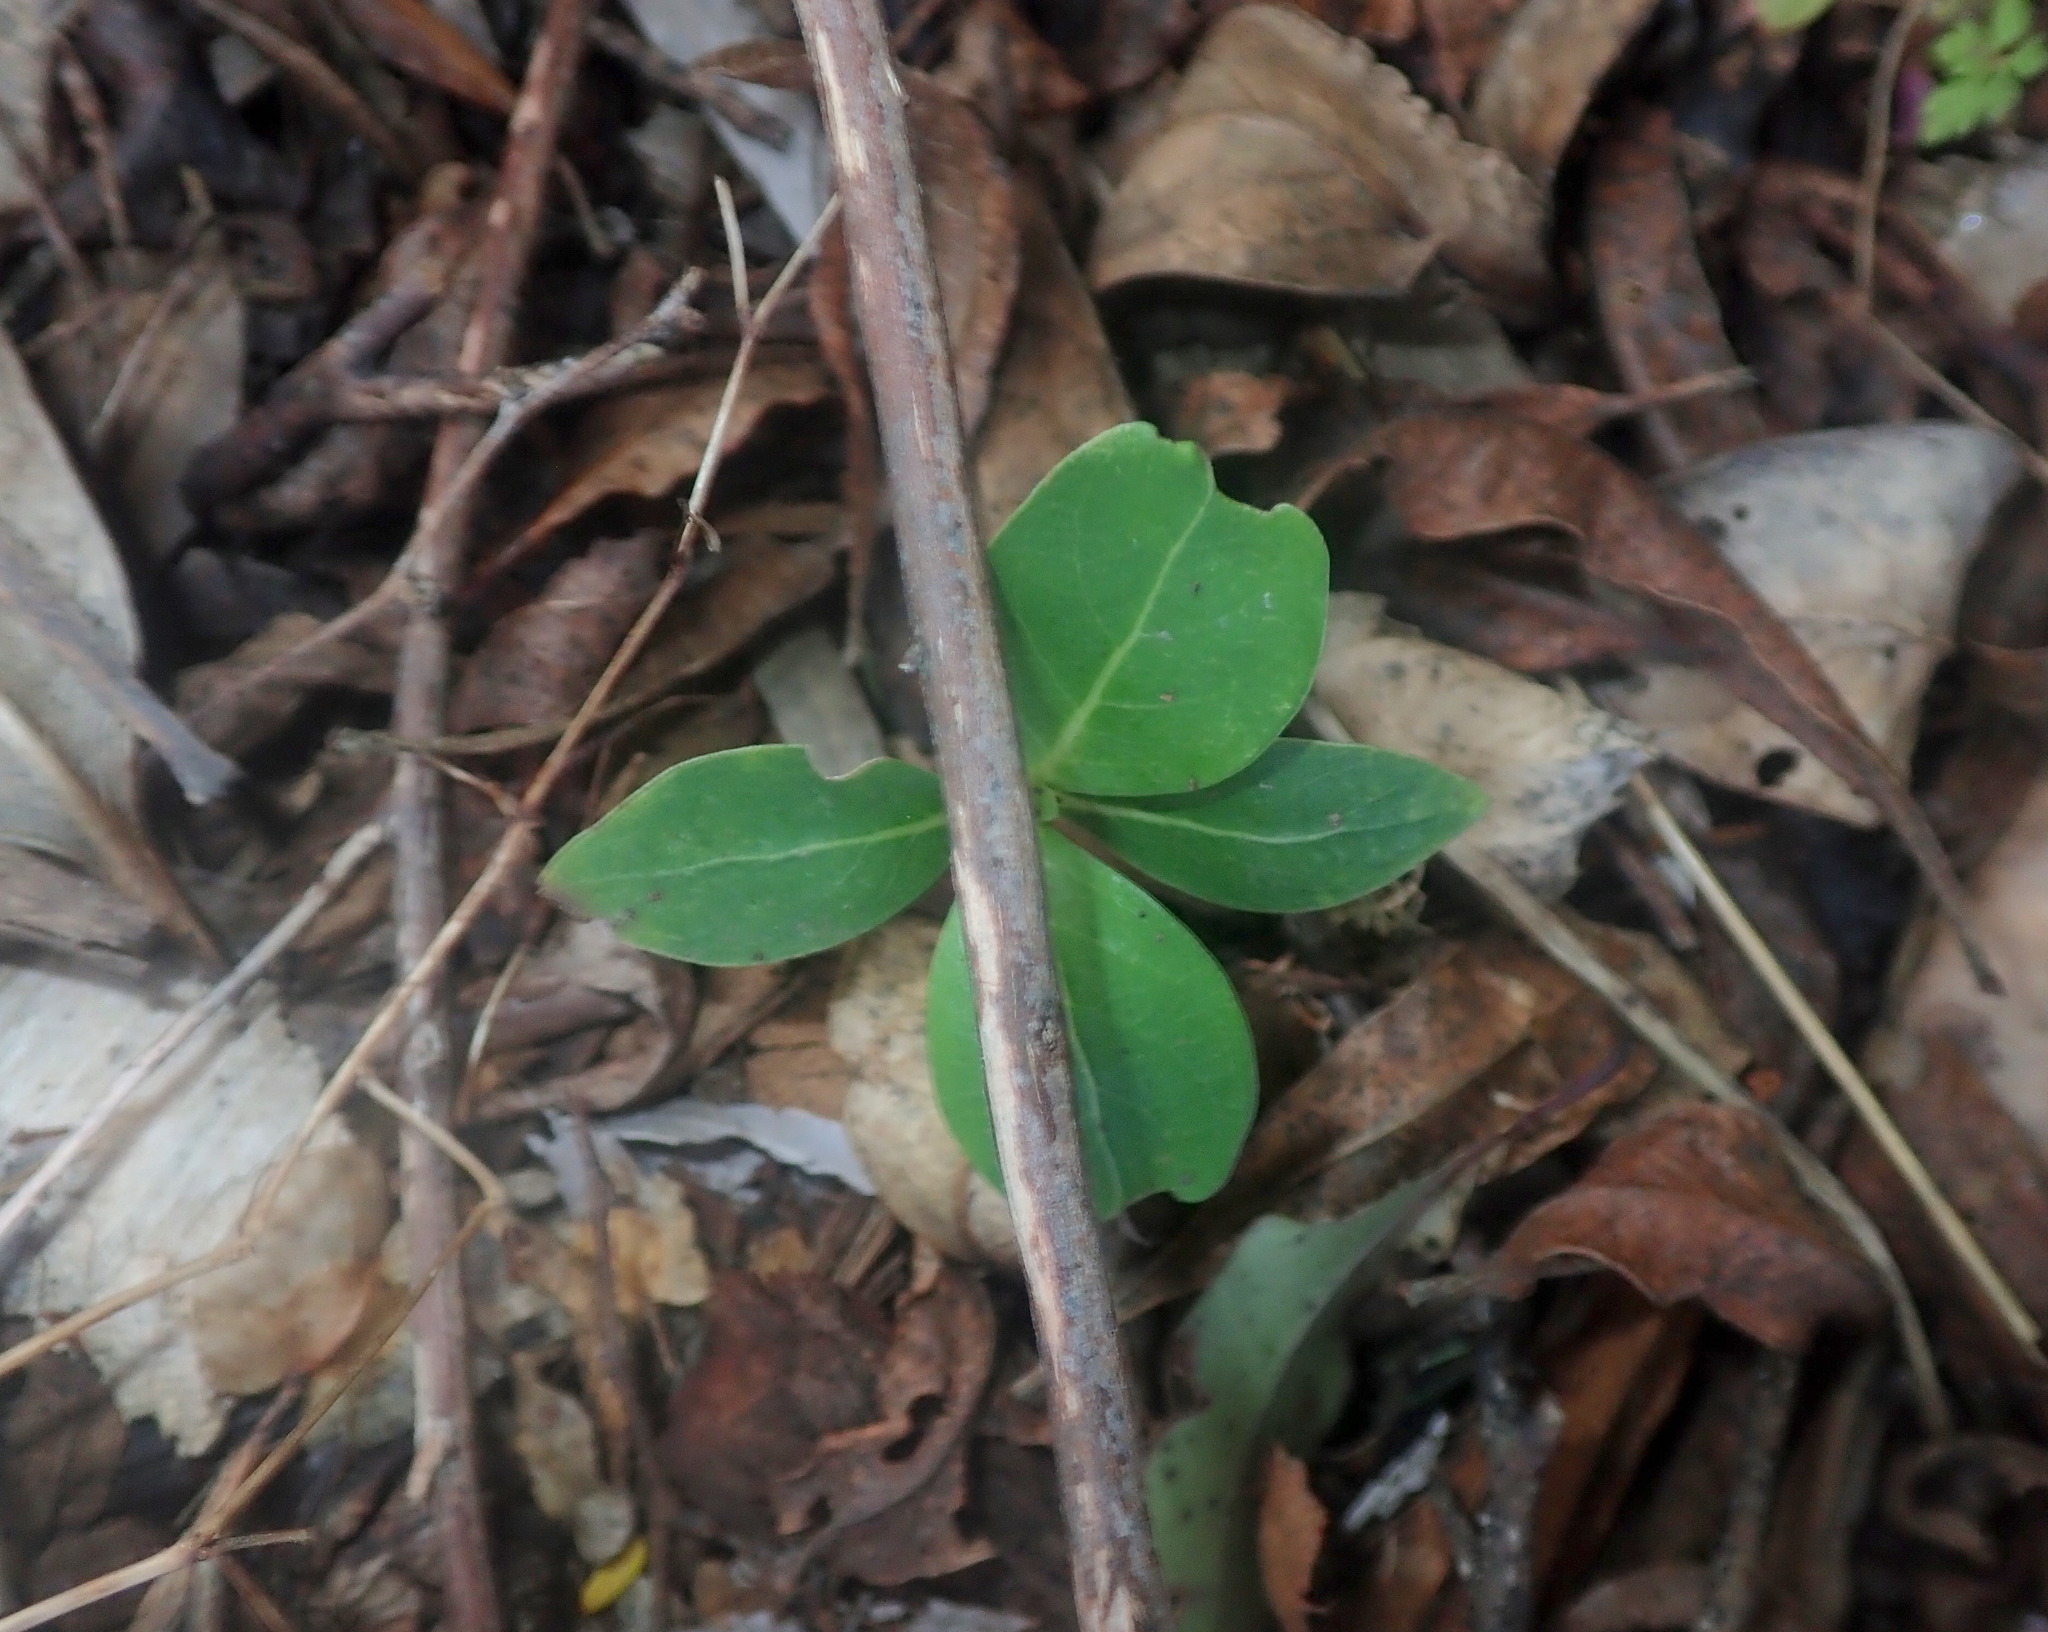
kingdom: Plantae
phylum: Tracheophyta
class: Magnoliopsida
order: Gentianales
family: Rubiaceae
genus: Coprosma
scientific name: Coprosma robusta
